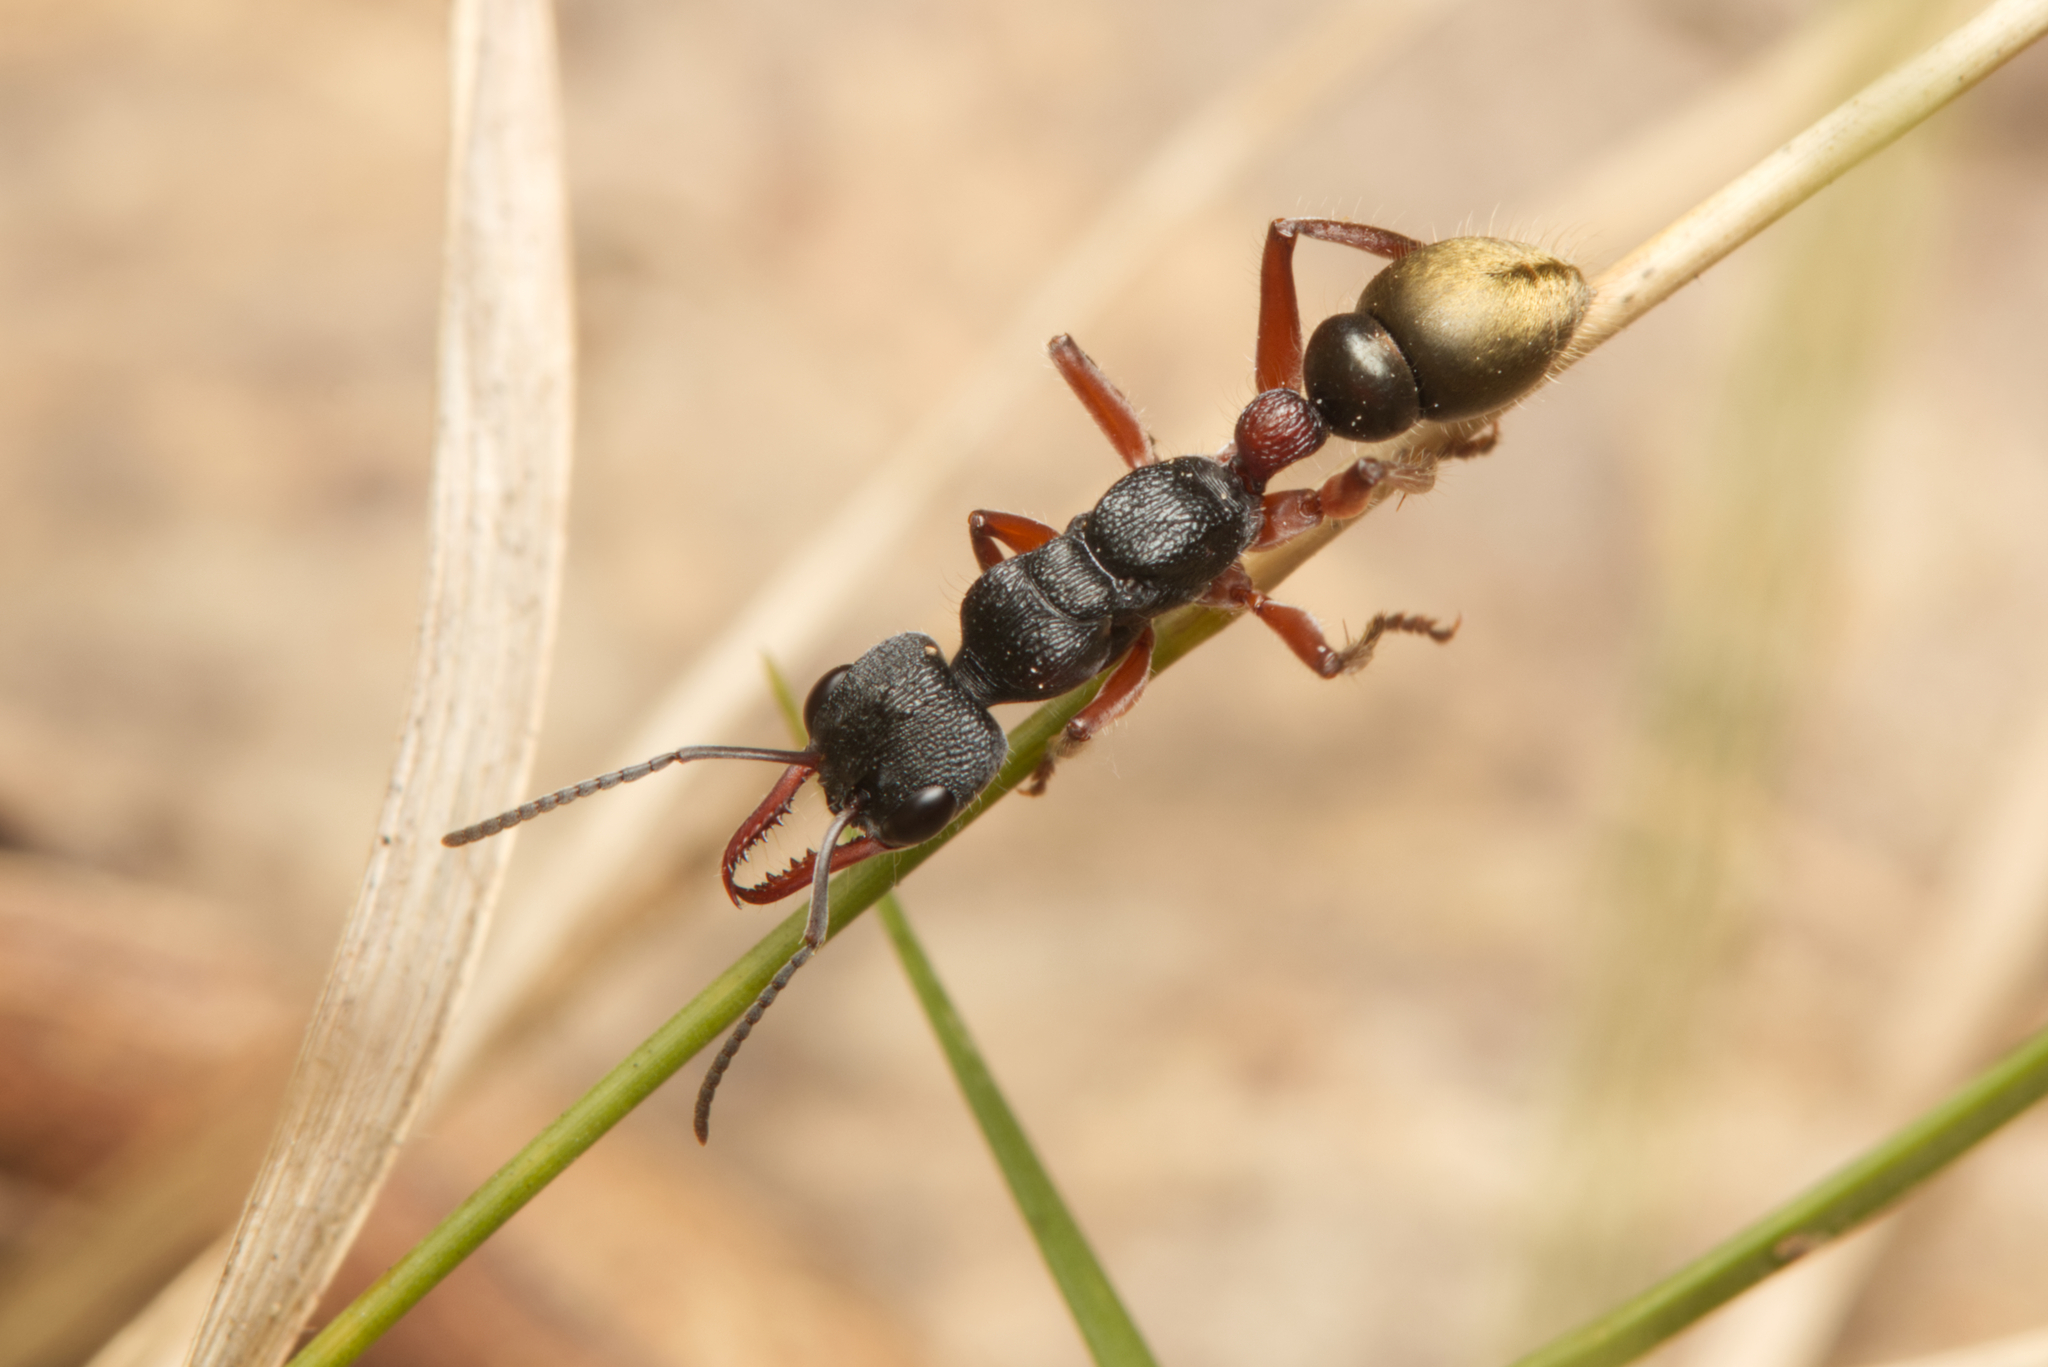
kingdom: Animalia
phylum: Arthropoda
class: Insecta
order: Hymenoptera
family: Formicidae
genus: Myrmecia
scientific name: Myrmecia chrysogaster
